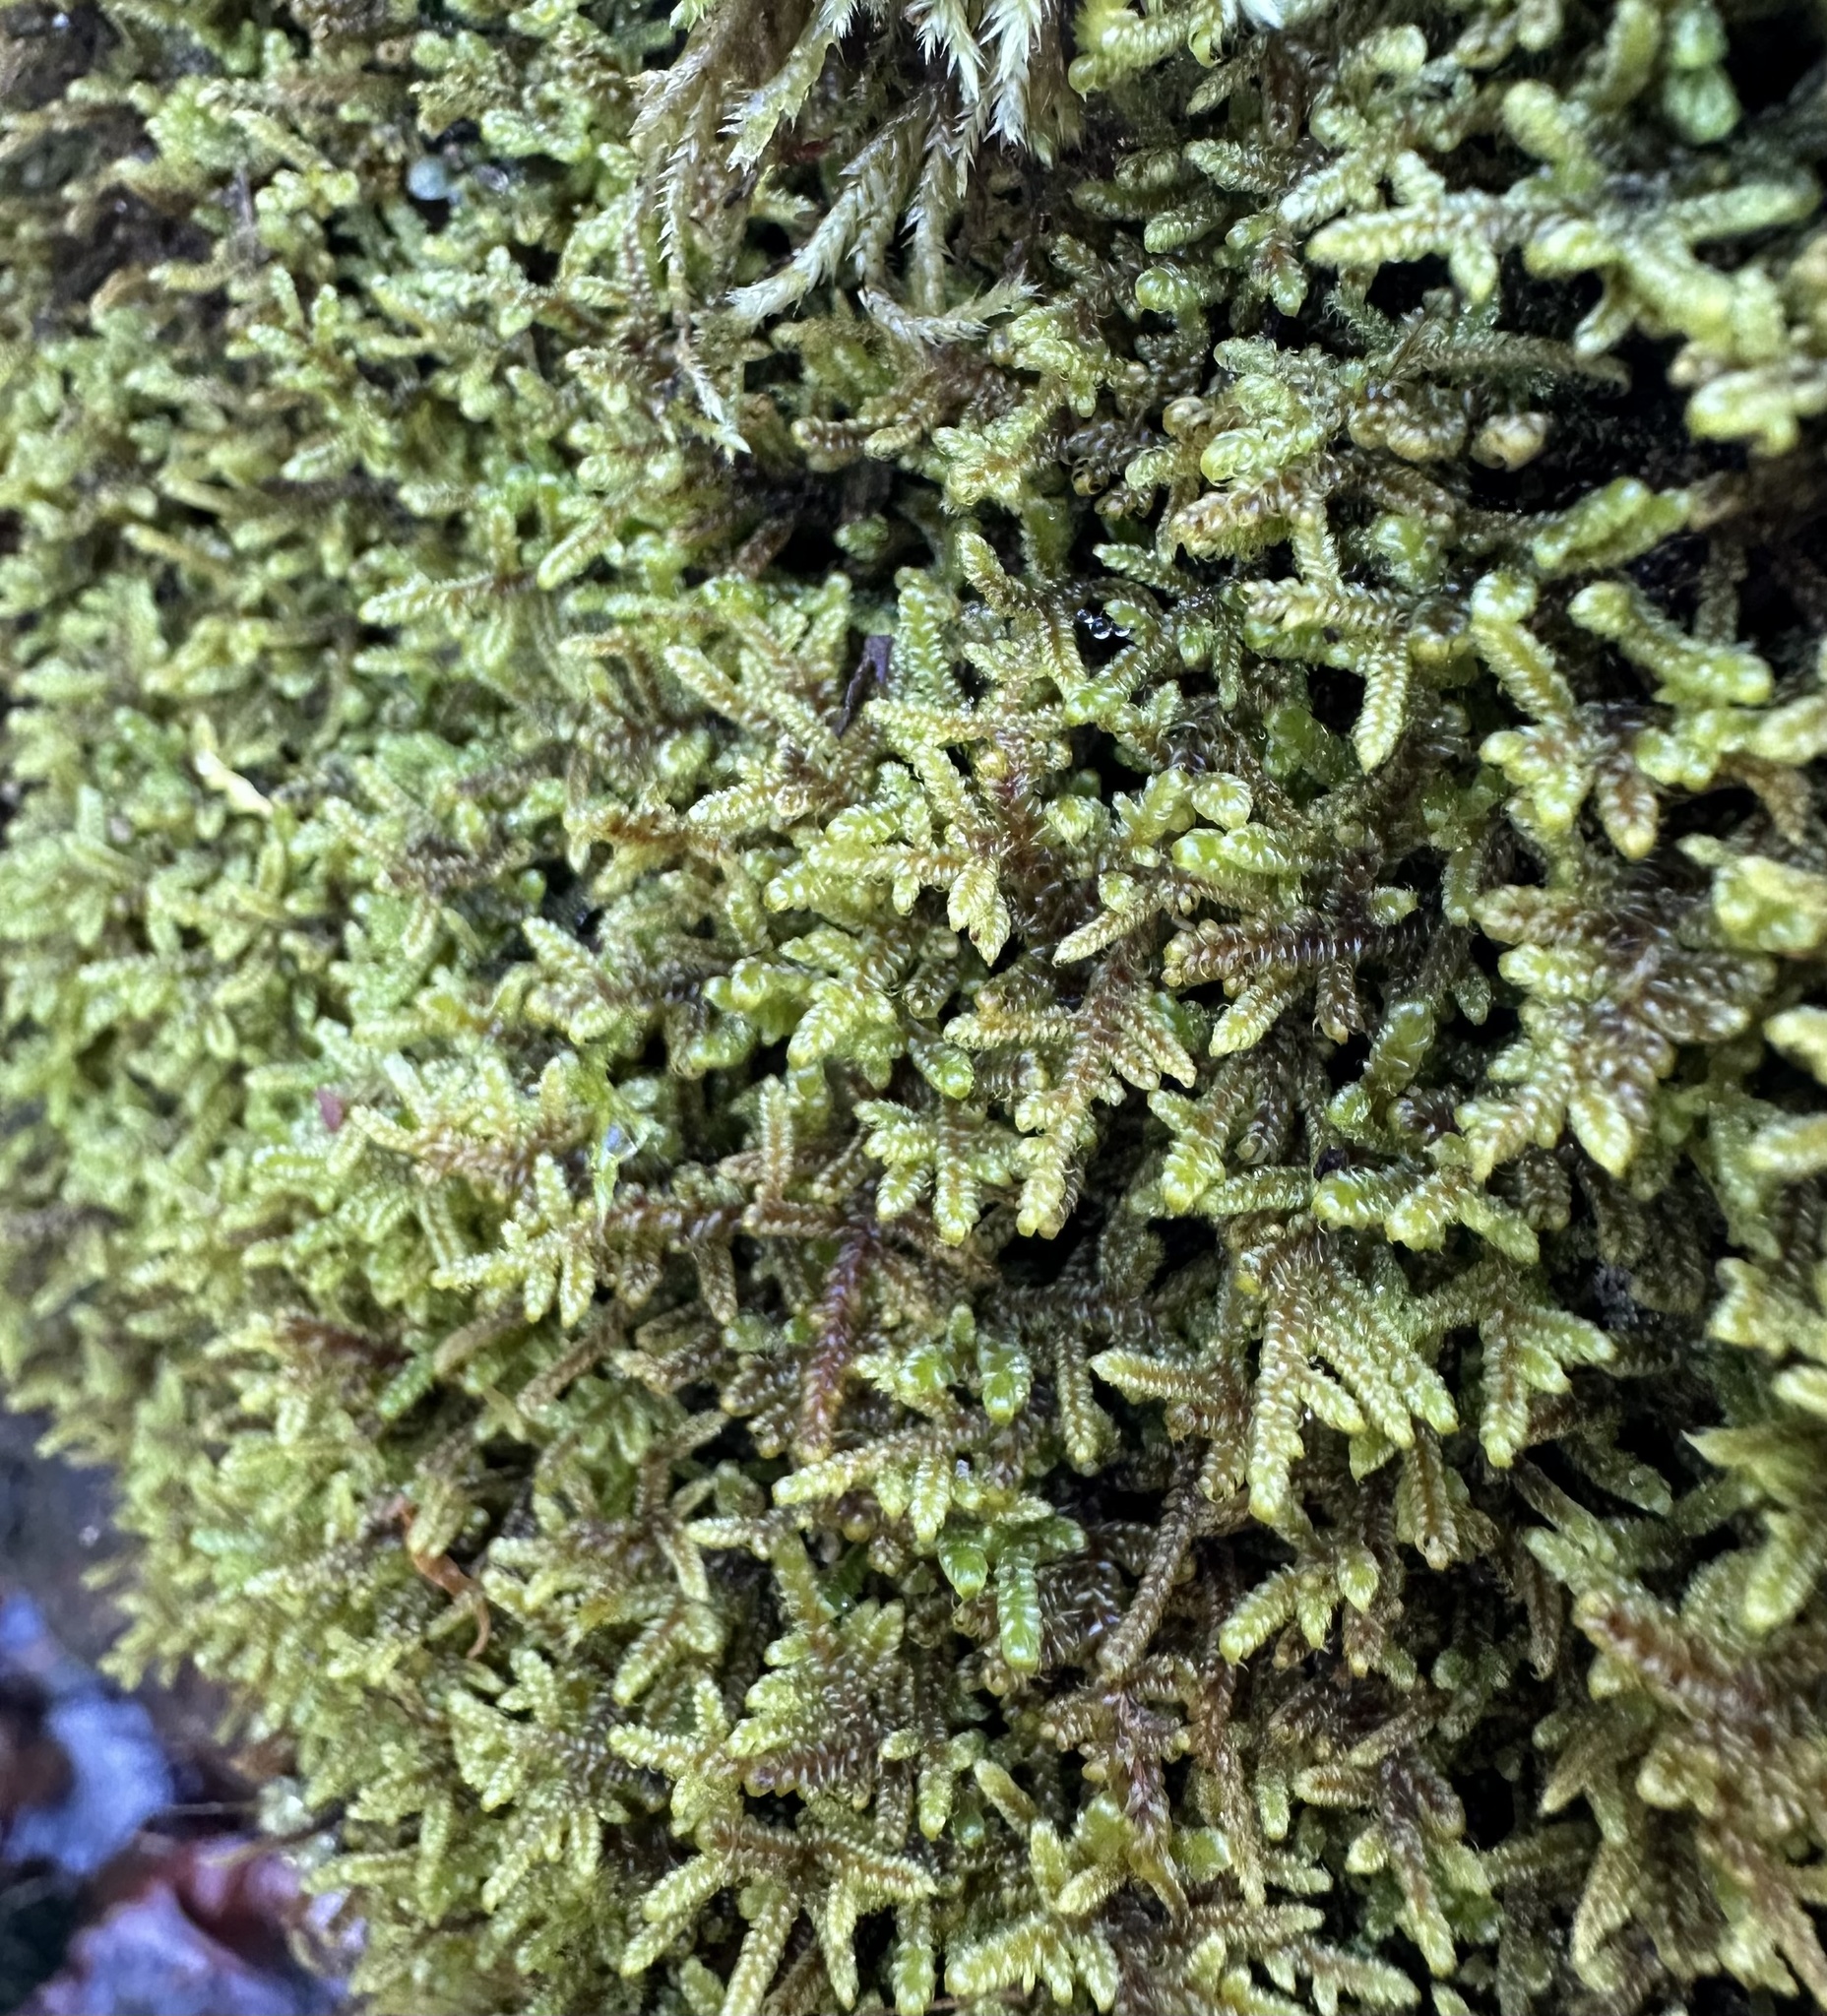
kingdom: Plantae
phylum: Bryophyta
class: Bryopsida
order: Hypnales
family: Callicladiaceae
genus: Callicladium
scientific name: Callicladium imponens
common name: Brocade moss
